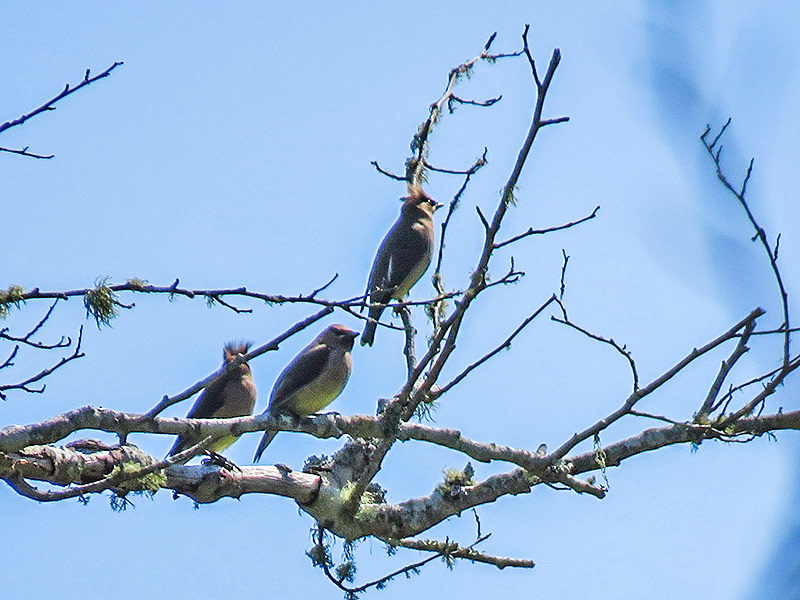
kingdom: Animalia
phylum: Chordata
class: Aves
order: Passeriformes
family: Bombycillidae
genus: Bombycilla
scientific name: Bombycilla cedrorum
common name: Cedar waxwing
